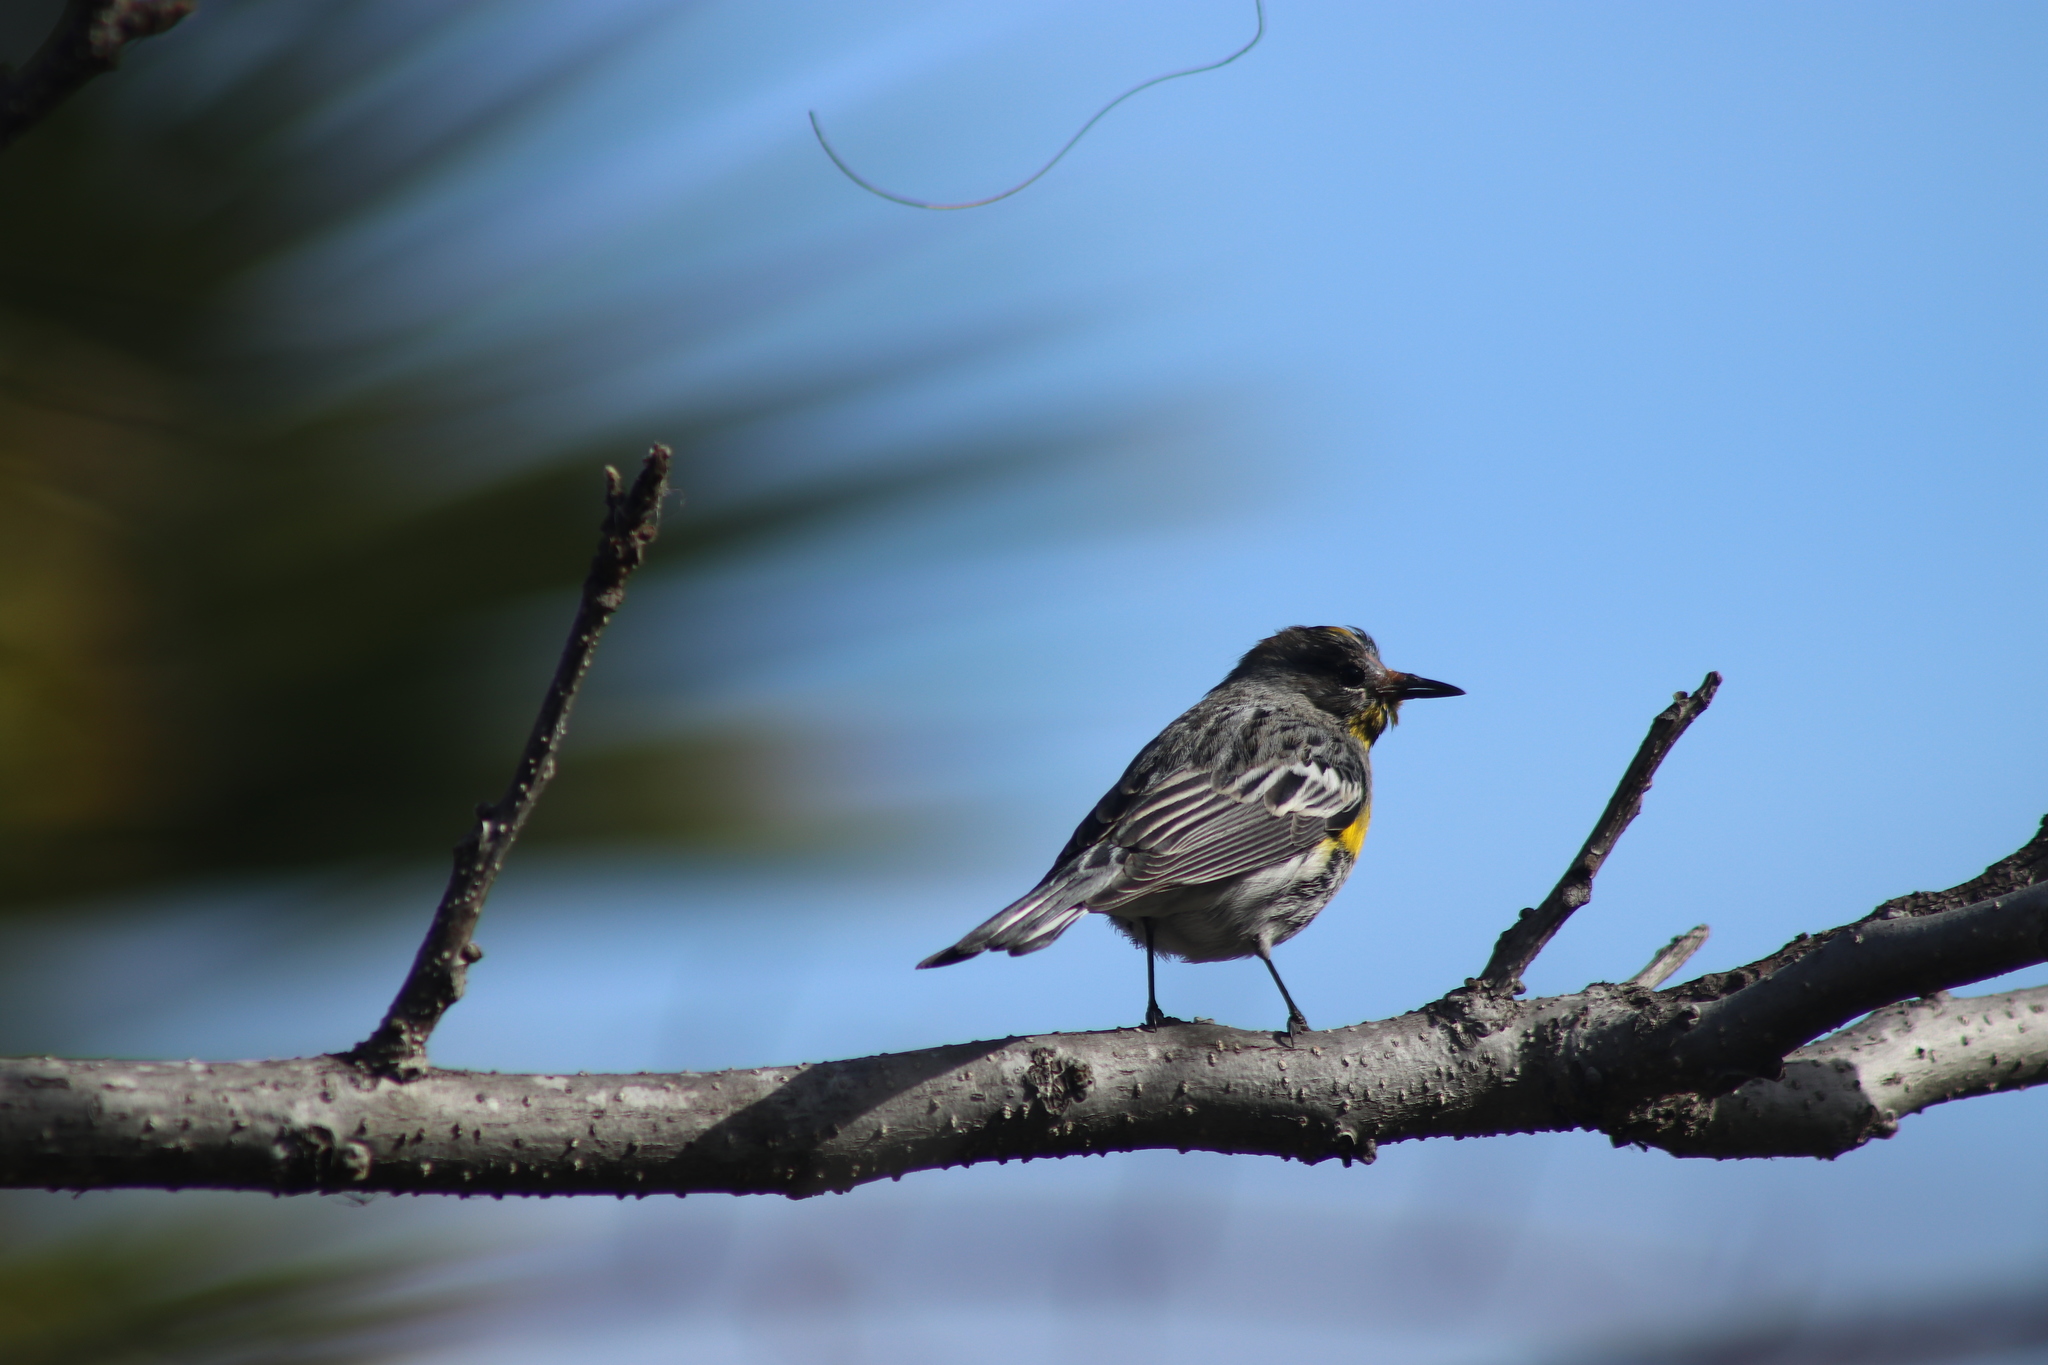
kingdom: Animalia
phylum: Chordata
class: Aves
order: Passeriformes
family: Parulidae
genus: Setophaga
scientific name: Setophaga coronata
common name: Myrtle warbler
